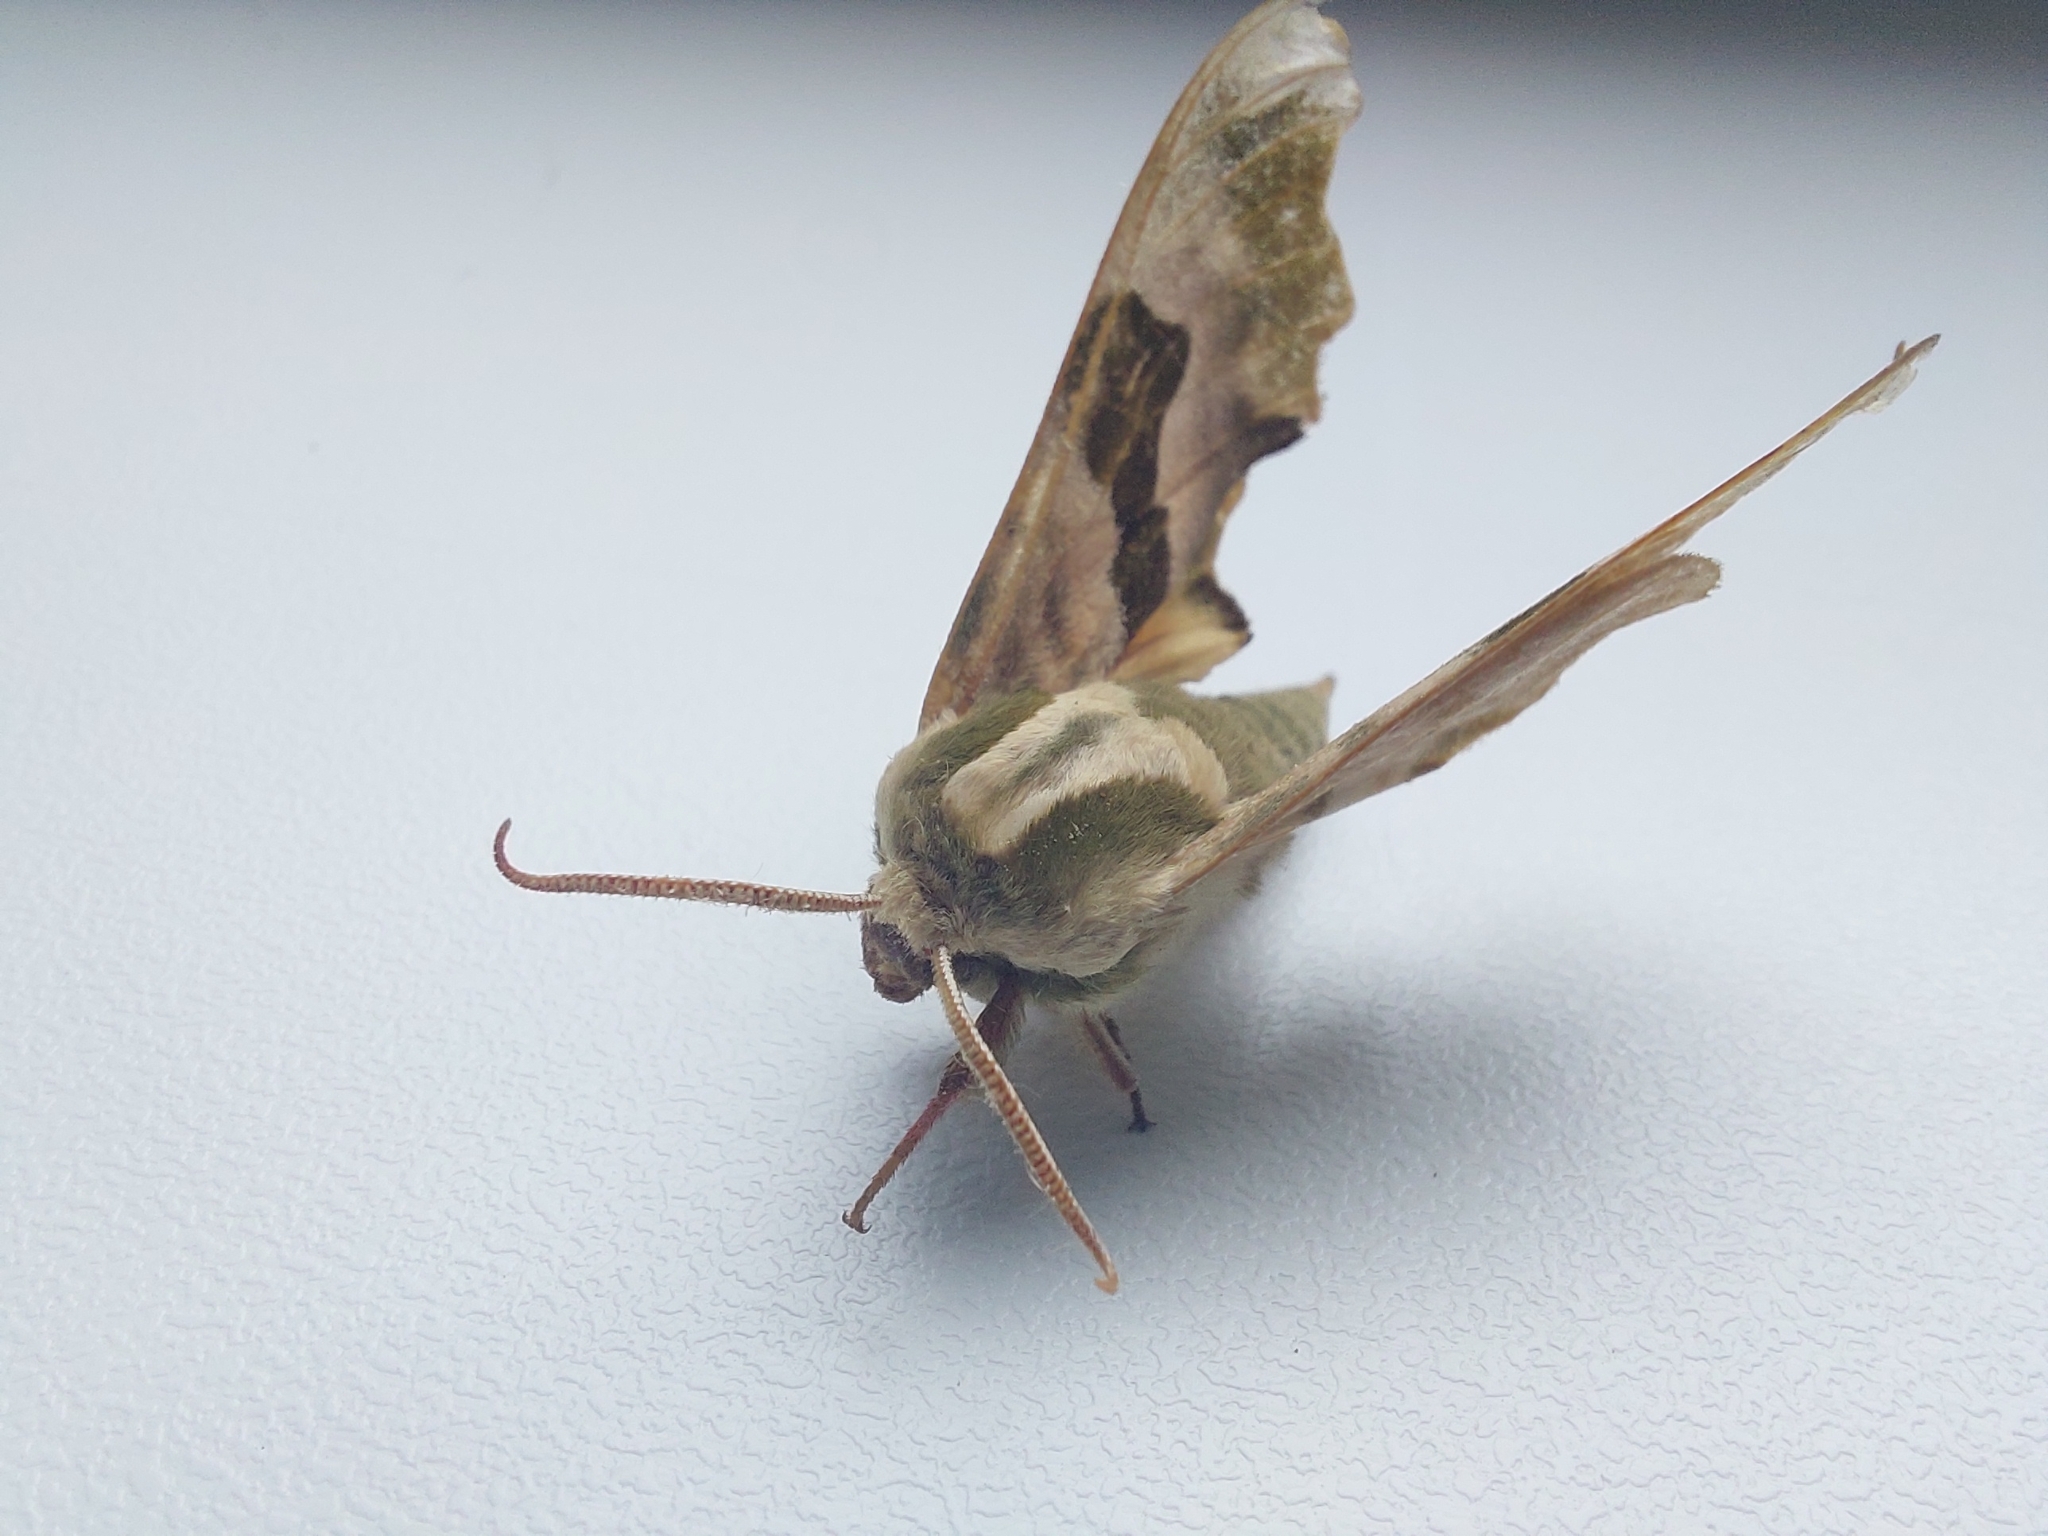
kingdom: Animalia
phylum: Arthropoda
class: Insecta
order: Lepidoptera
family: Sphingidae
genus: Mimas
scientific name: Mimas tiliae
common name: Lime hawk-moth
